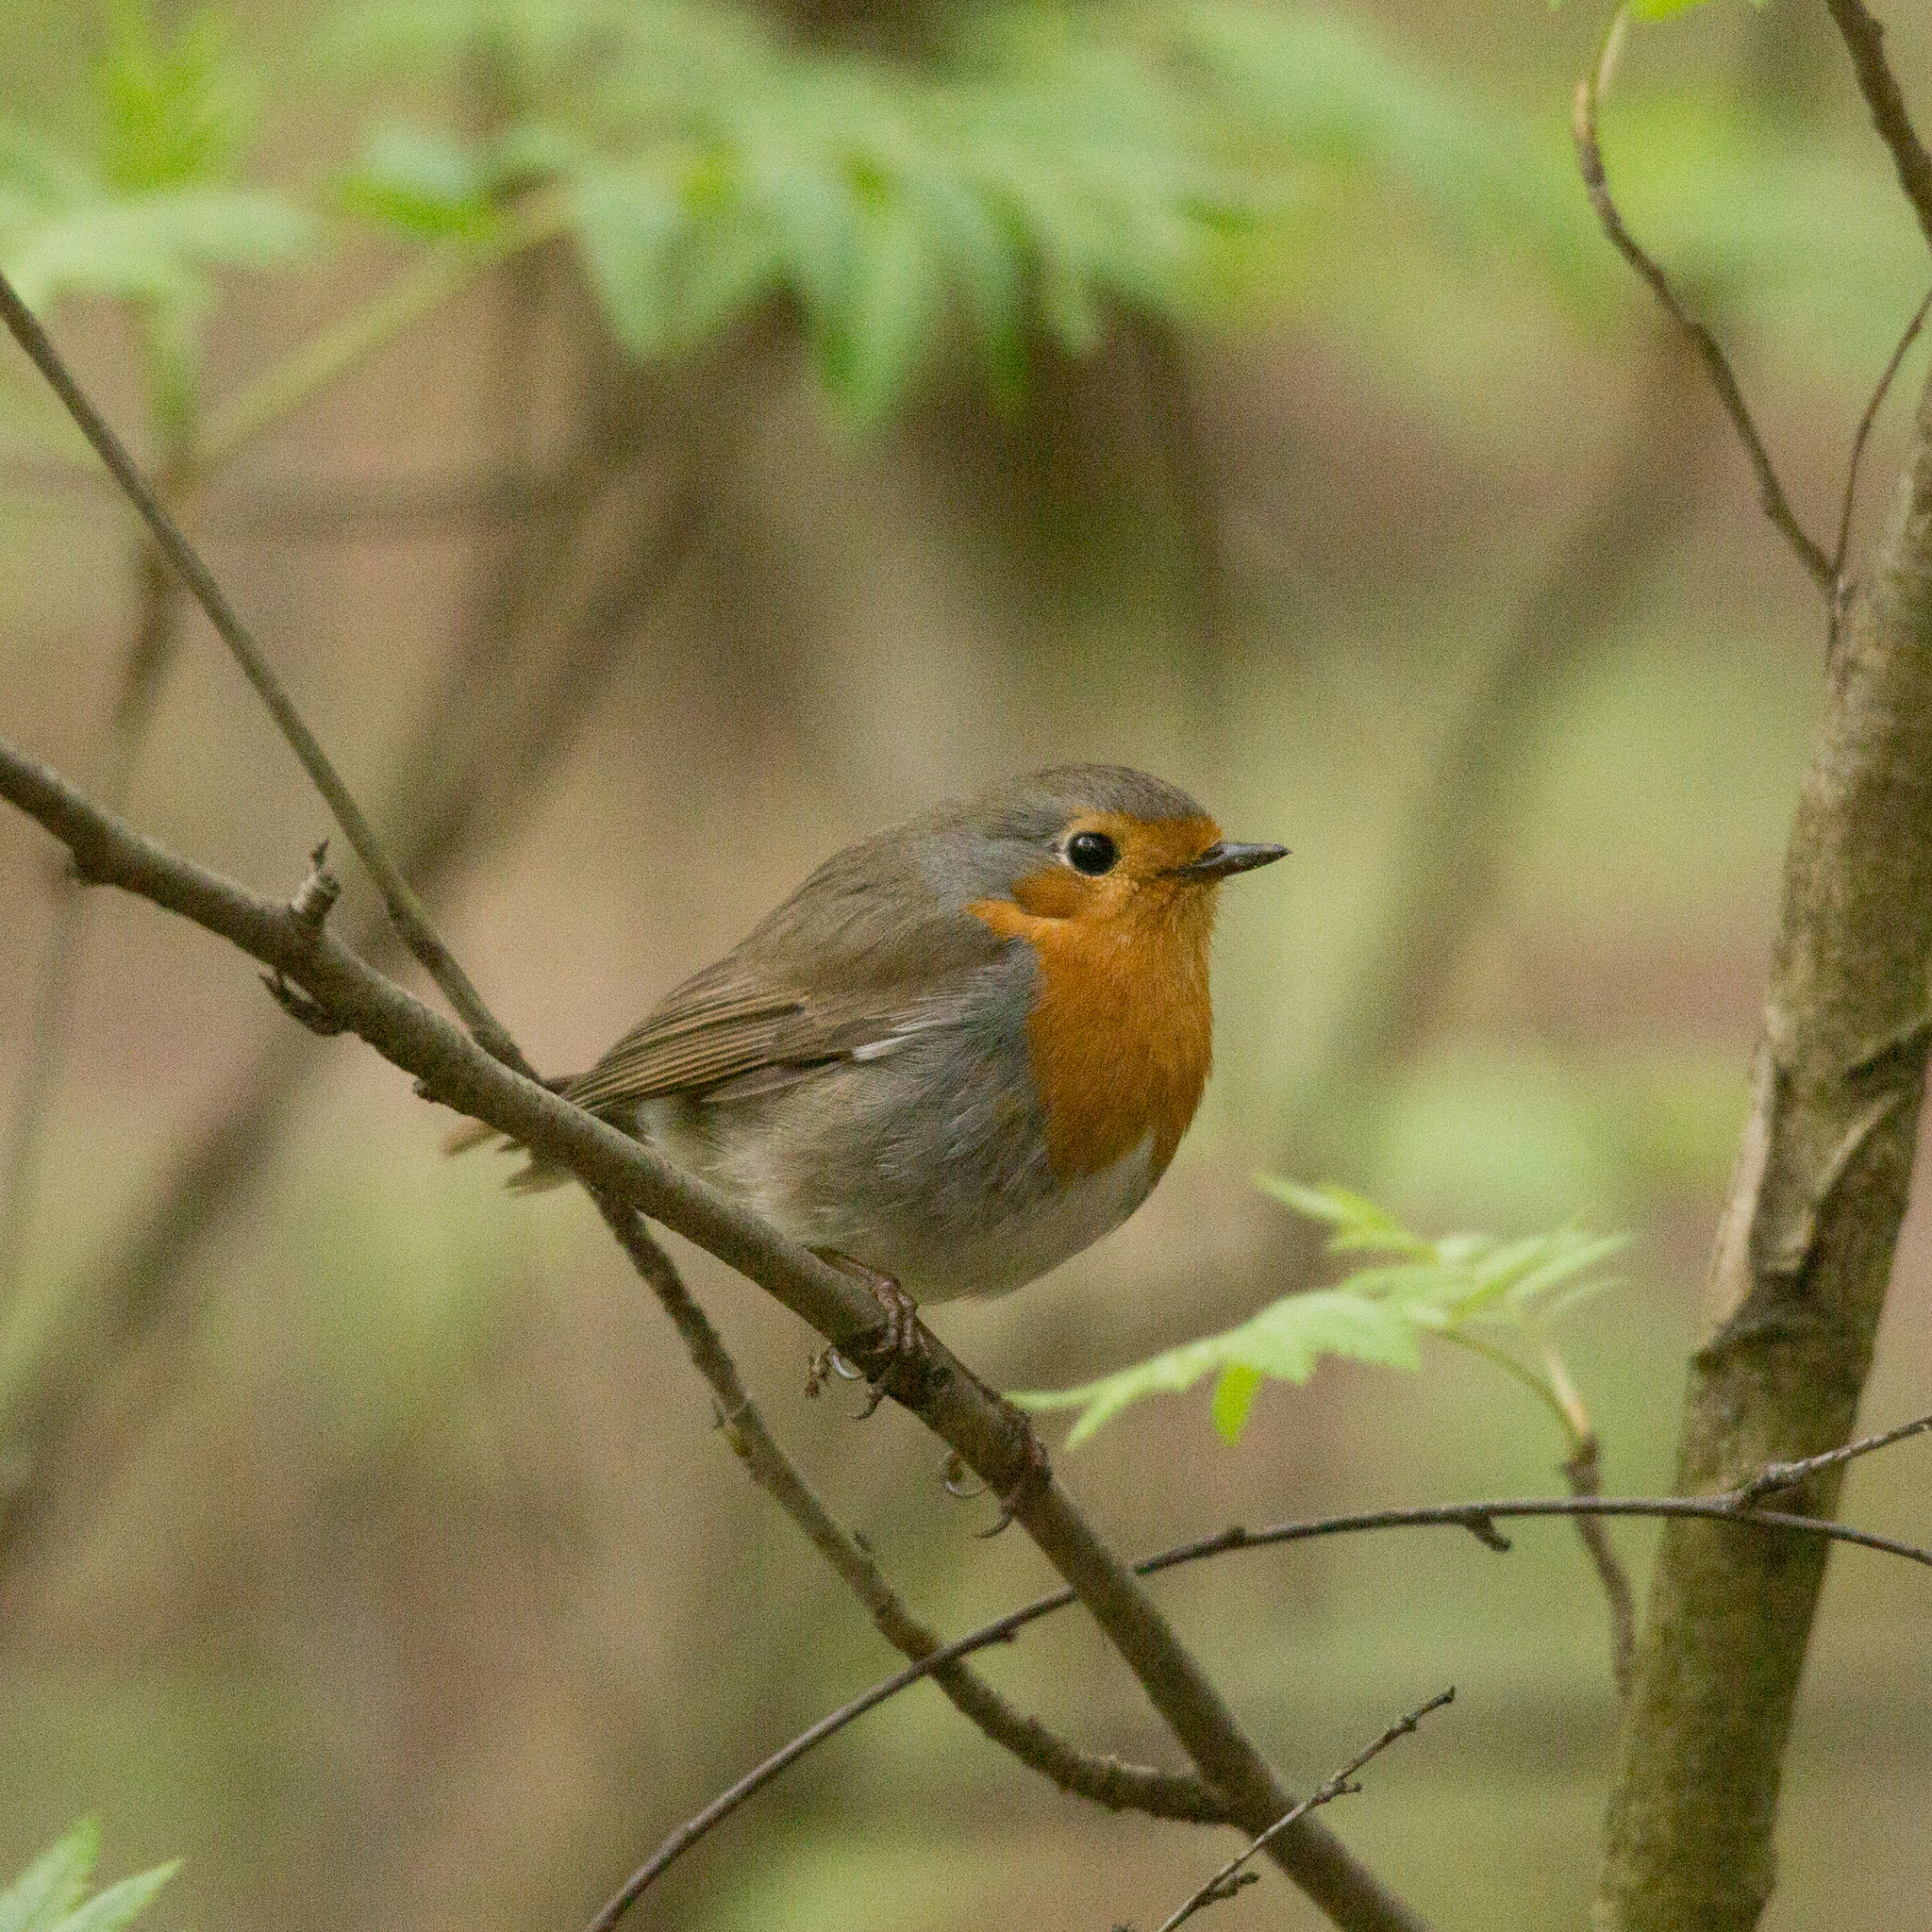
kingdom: Animalia
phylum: Chordata
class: Aves
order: Passeriformes
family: Muscicapidae
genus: Erithacus
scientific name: Erithacus rubecula
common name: European robin
